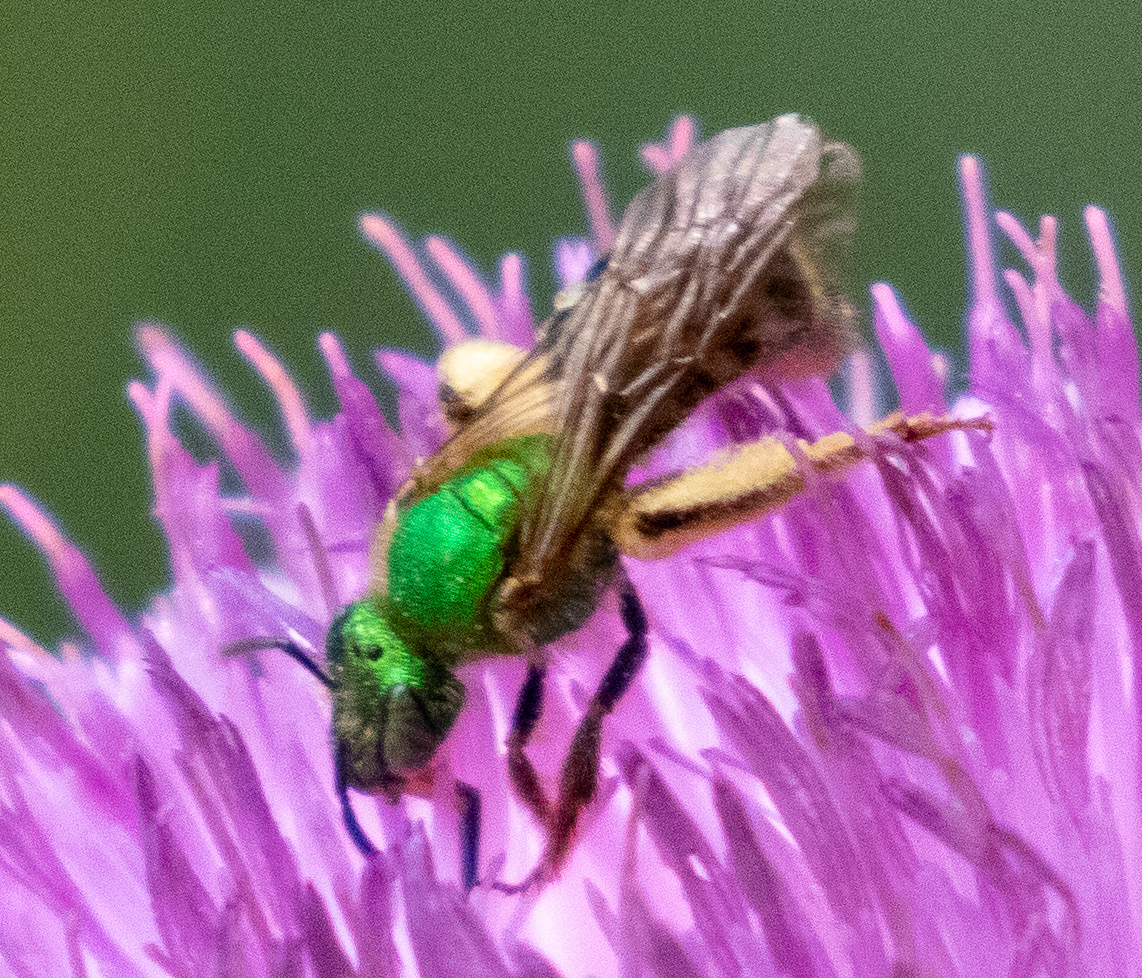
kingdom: Animalia
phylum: Arthropoda
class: Insecta
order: Hymenoptera
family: Halictidae
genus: Agapostemon
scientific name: Agapostemon virescens
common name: Bicolored striped sweat bee
